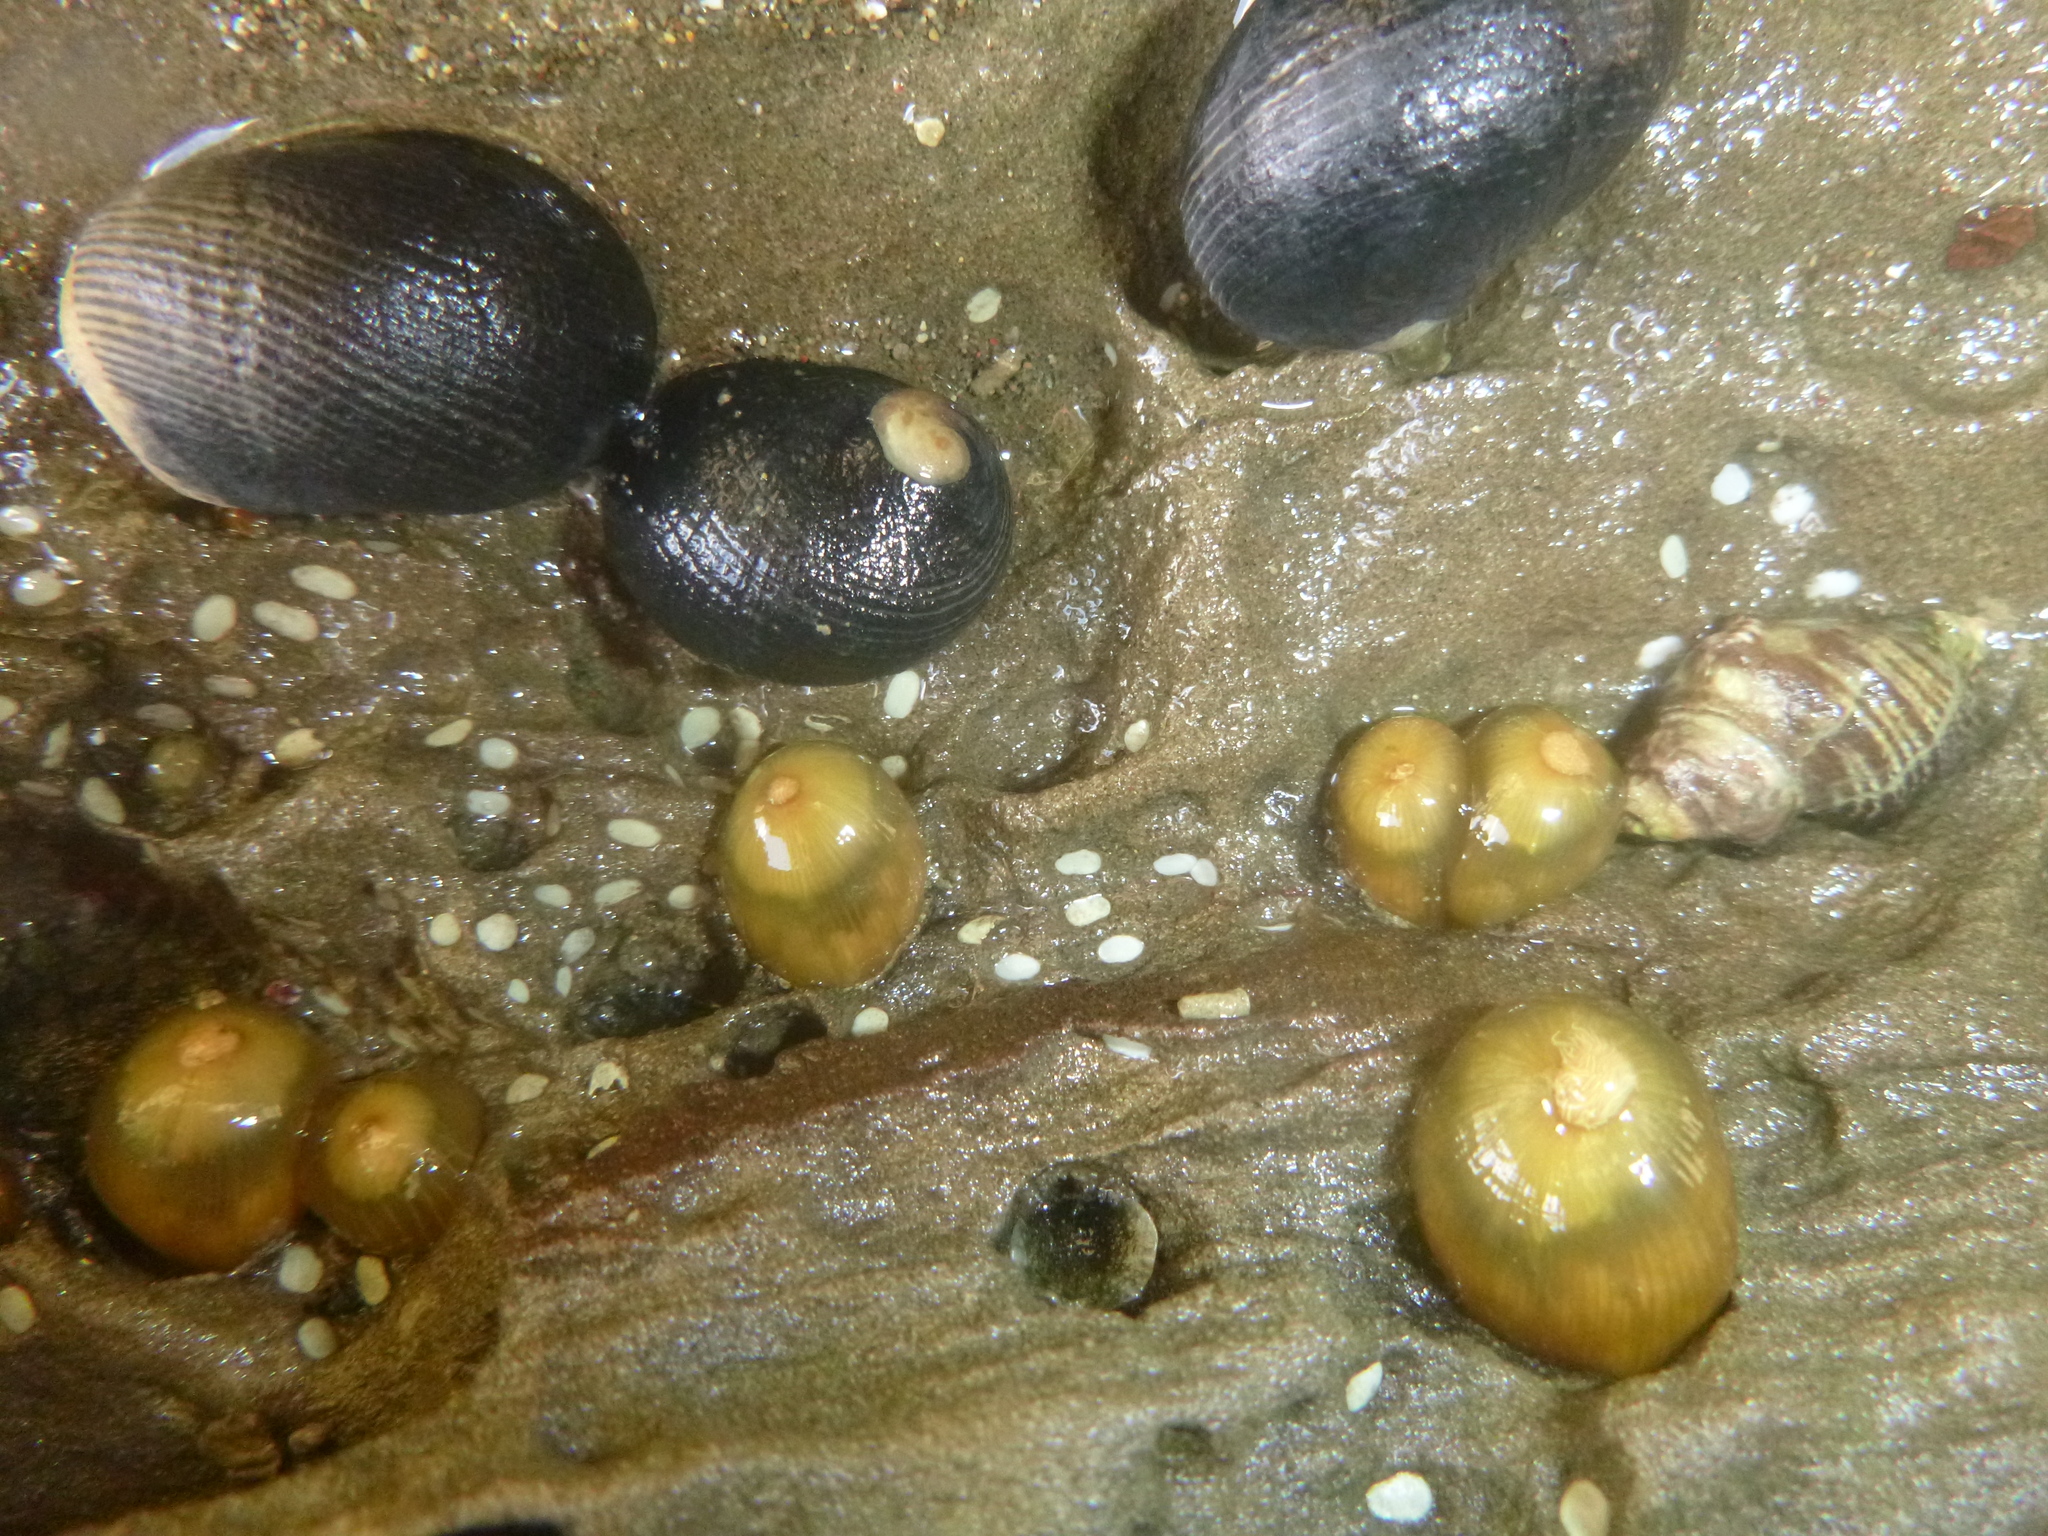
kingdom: Animalia
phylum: Cnidaria
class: Anthozoa
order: Actiniaria
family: Diadumenidae
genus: Diadumene
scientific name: Diadumene lineata
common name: Orange-striped anemone
